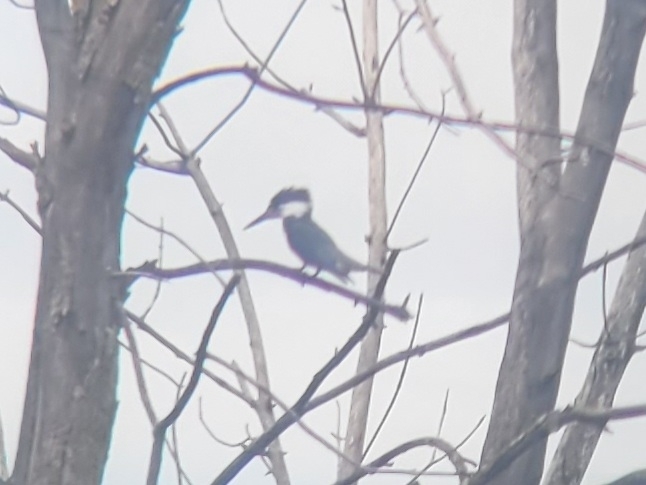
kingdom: Animalia
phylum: Chordata
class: Aves
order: Coraciiformes
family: Alcedinidae
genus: Megaceryle
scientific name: Megaceryle alcyon
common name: Belted kingfisher
